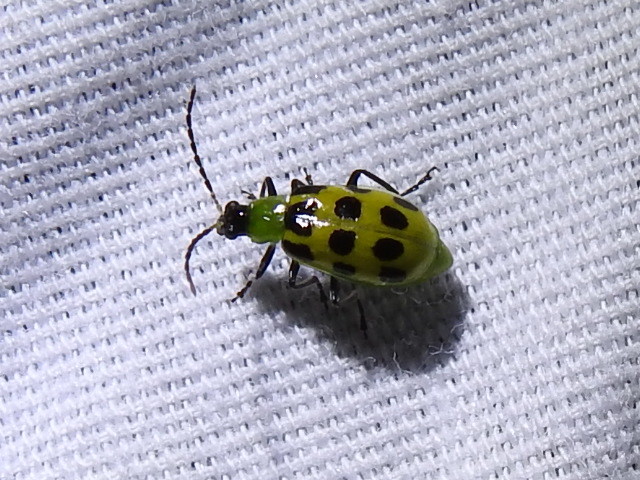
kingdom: Animalia
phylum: Arthropoda
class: Insecta
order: Coleoptera
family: Chrysomelidae
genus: Diabrotica
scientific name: Diabrotica undecimpunctata
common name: Spotted cucumber beetle
